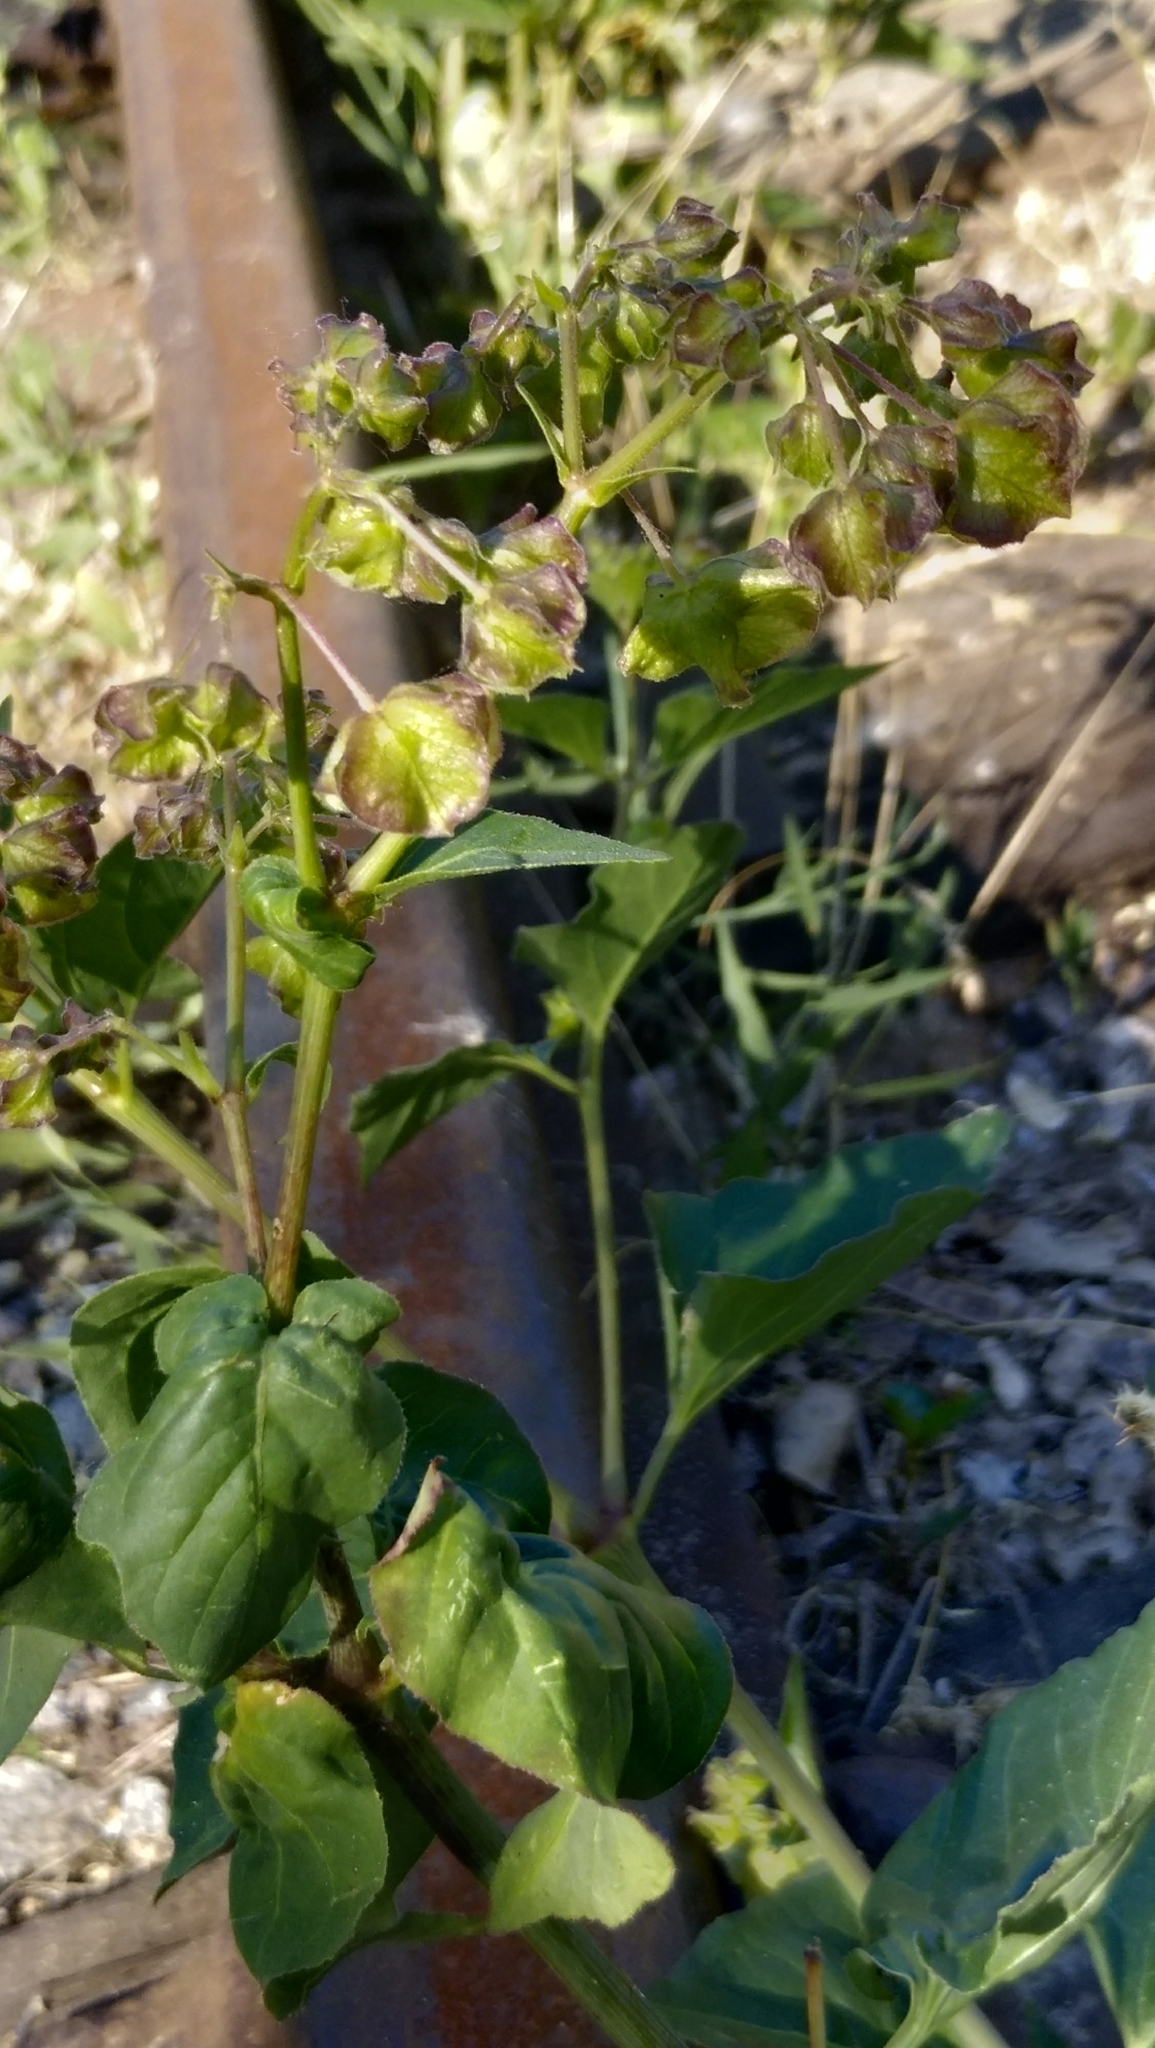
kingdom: Plantae
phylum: Tracheophyta
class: Magnoliopsida
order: Caryophyllales
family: Nyctaginaceae
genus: Mirabilis
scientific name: Mirabilis nyctaginea
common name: Umbrella wort
